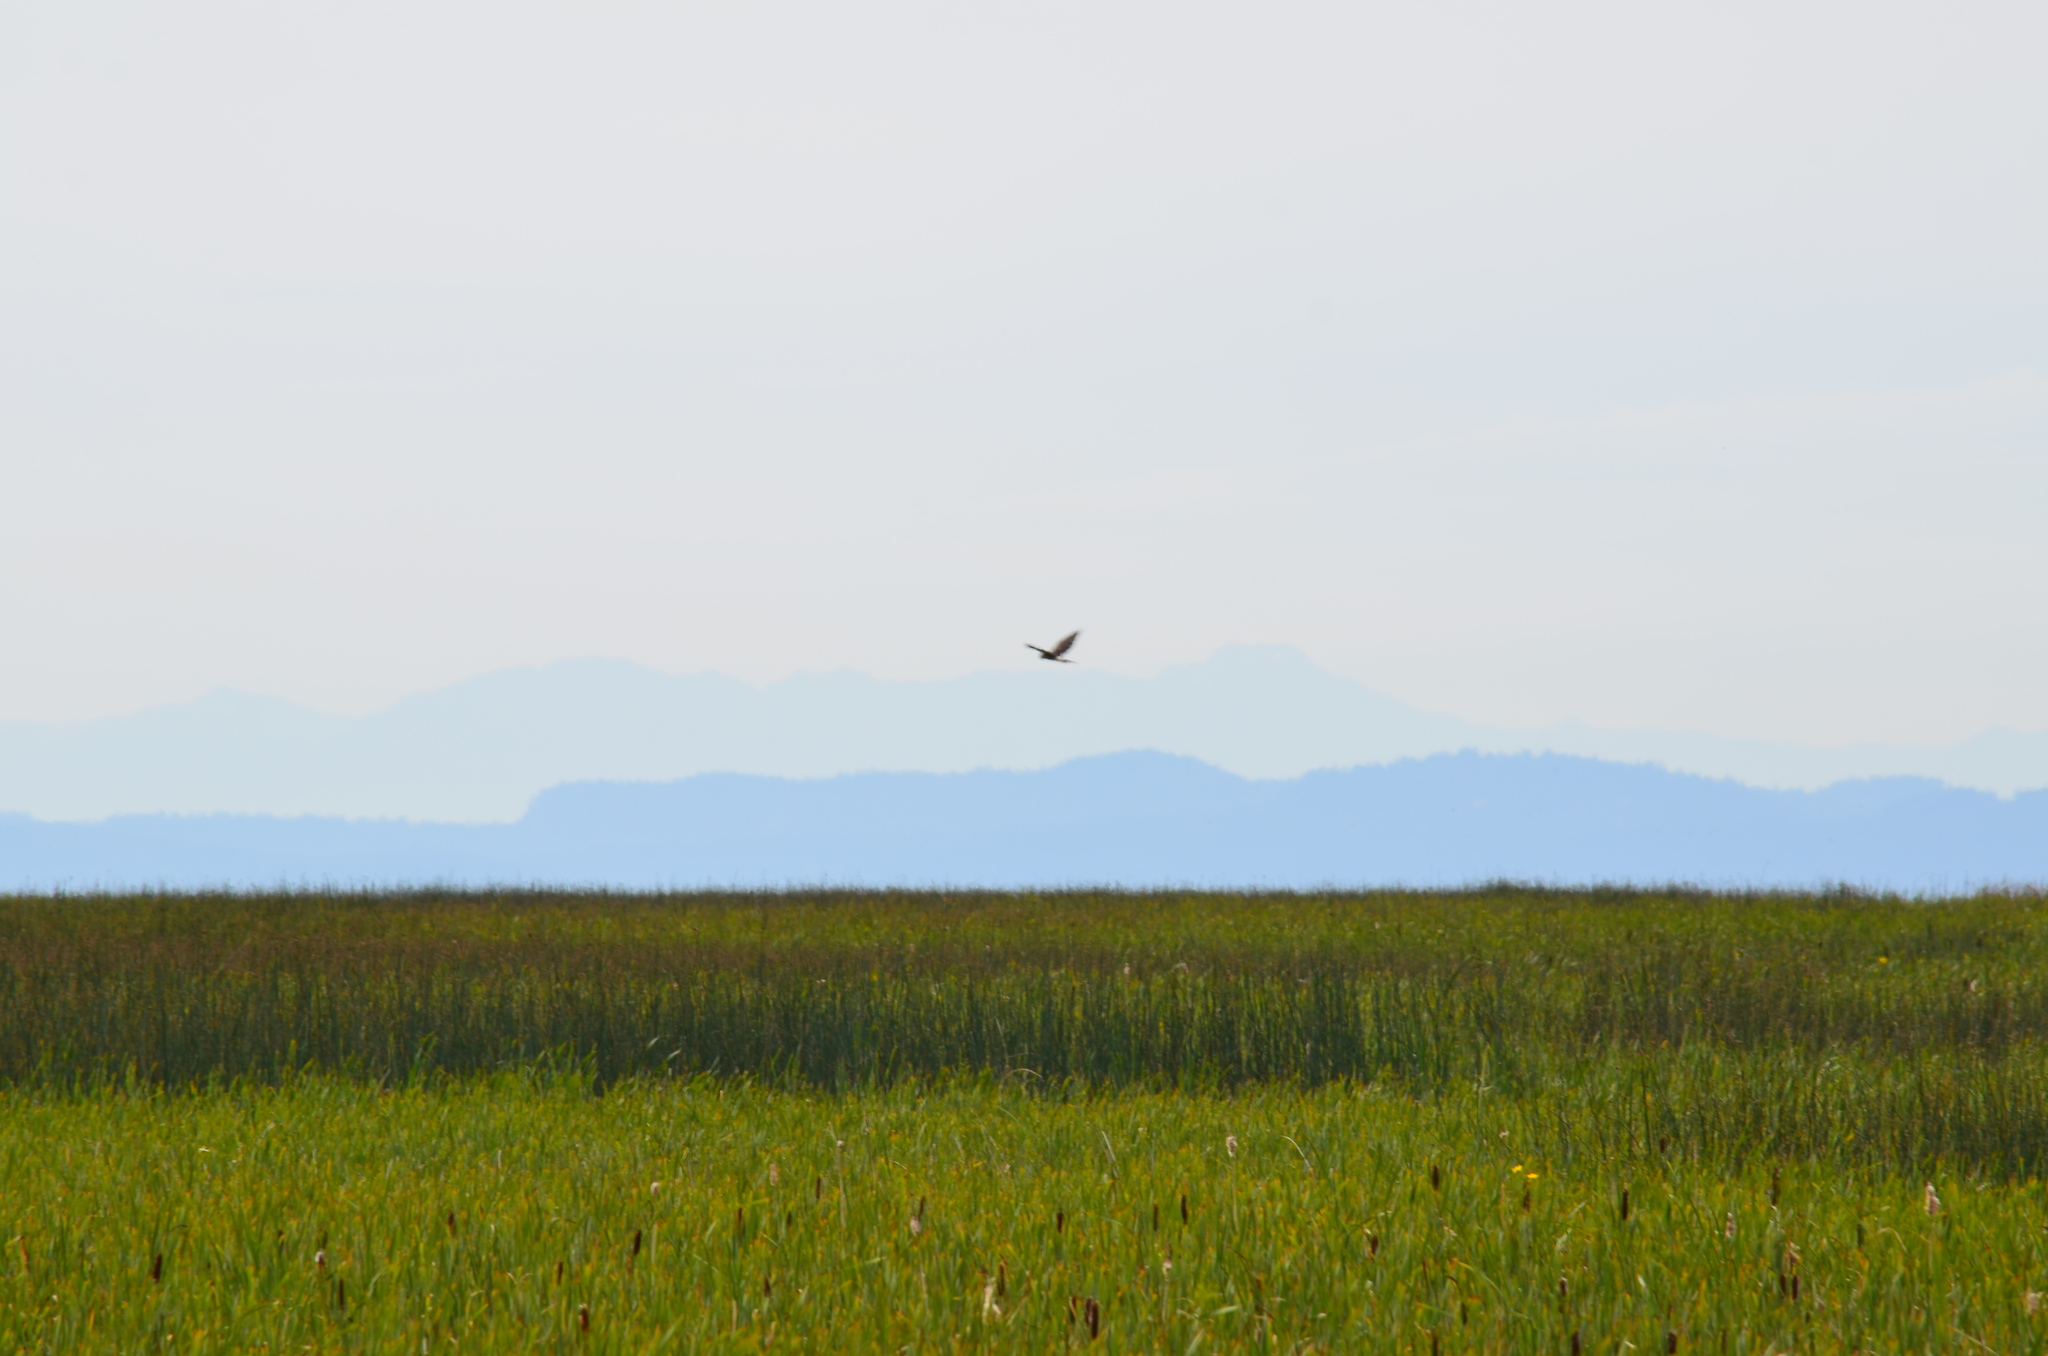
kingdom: Animalia
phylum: Chordata
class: Aves
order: Accipitriformes
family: Accipitridae
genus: Circus
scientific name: Circus cyaneus
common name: Hen harrier
